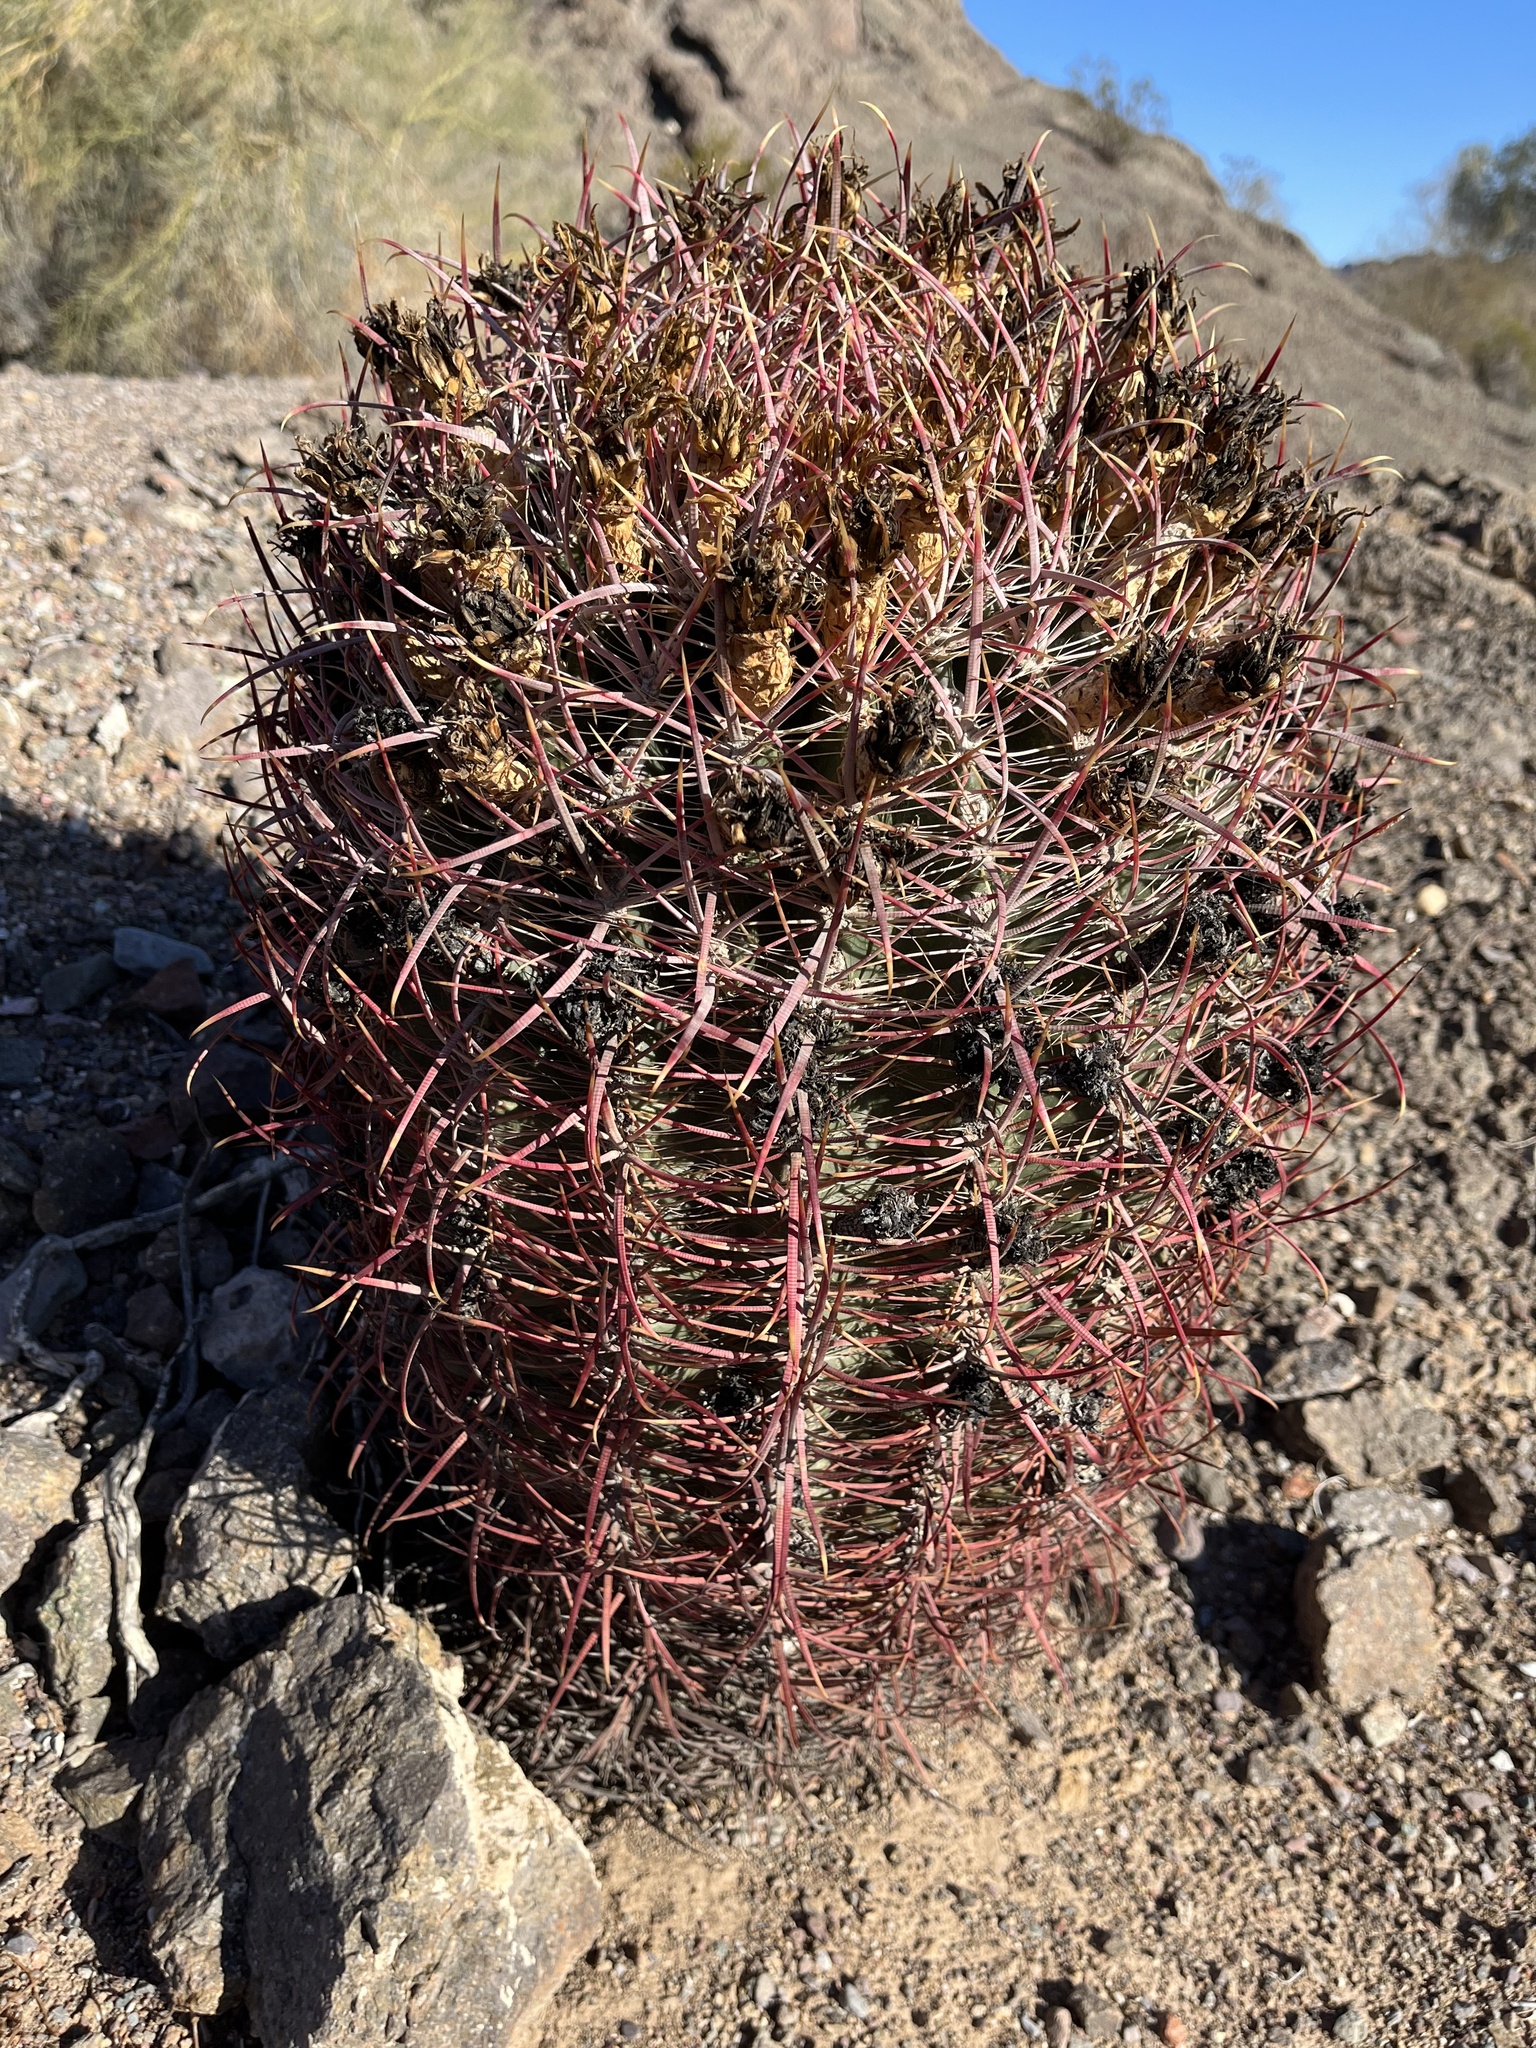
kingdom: Plantae
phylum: Tracheophyta
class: Magnoliopsida
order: Caryophyllales
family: Cactaceae
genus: Ferocactus
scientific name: Ferocactus cylindraceus
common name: California barrel cactus
